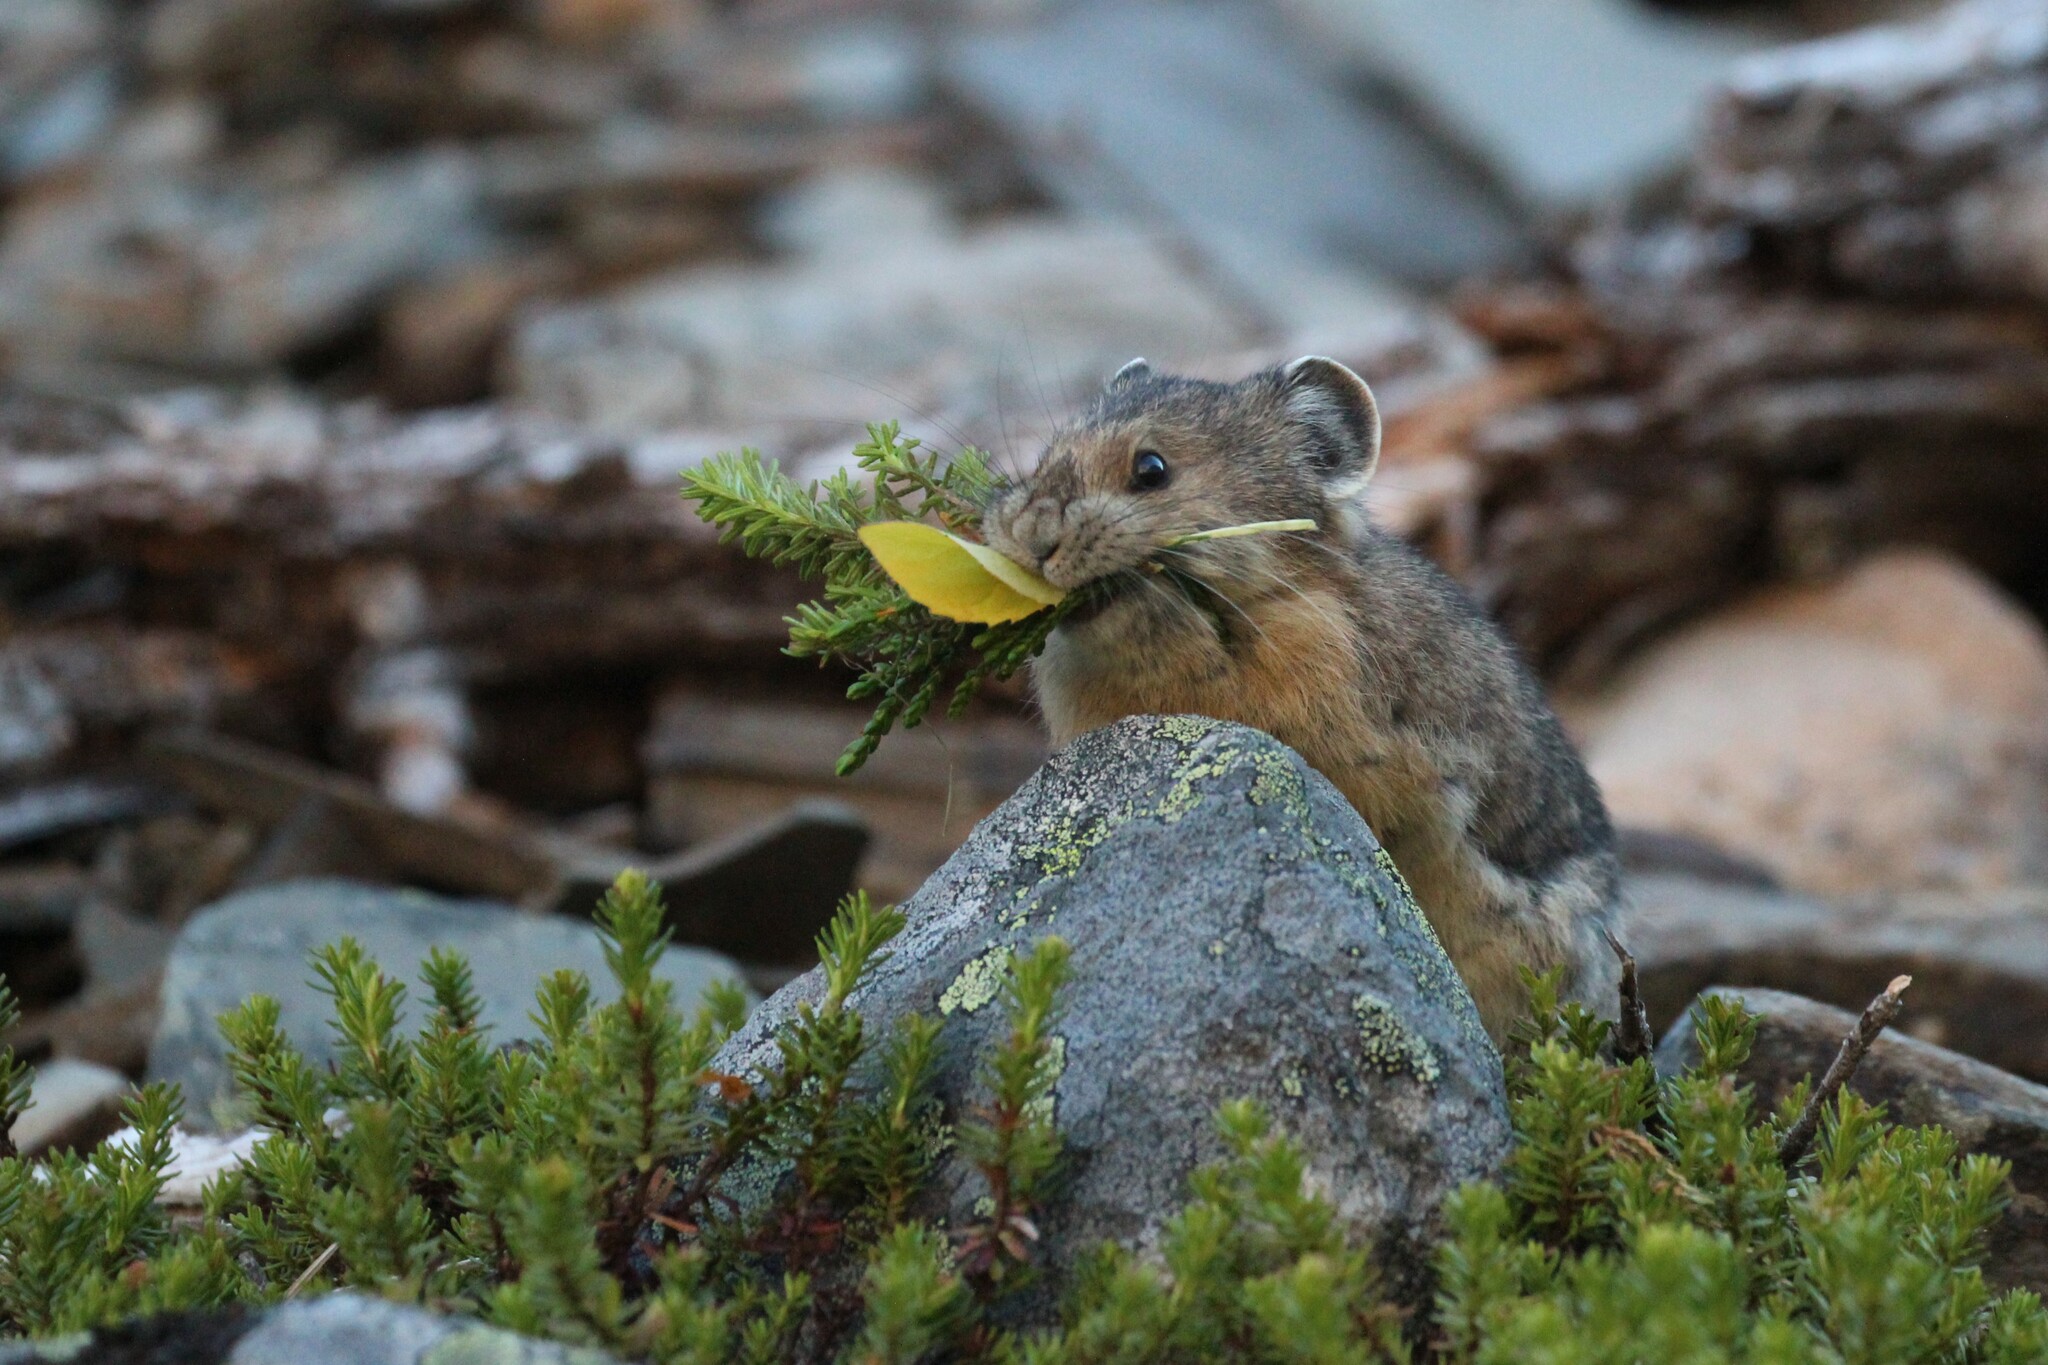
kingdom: Animalia
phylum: Chordata
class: Mammalia
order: Lagomorpha
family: Ochotonidae
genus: Ochotona
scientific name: Ochotona princeps
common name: American pika
